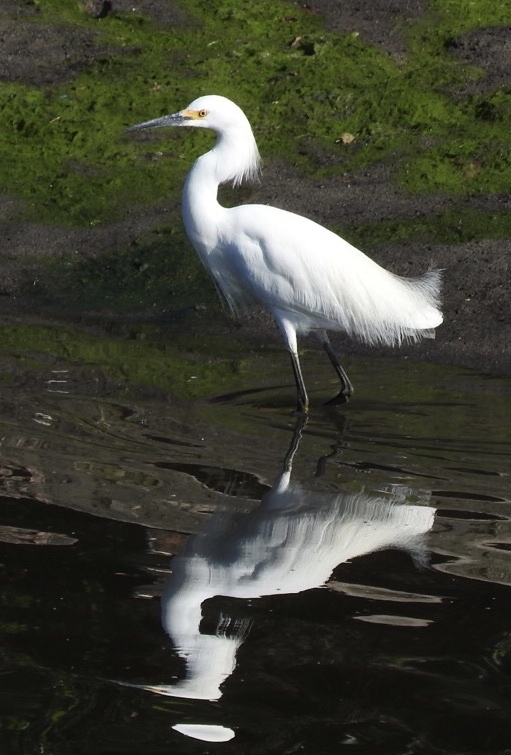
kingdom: Animalia
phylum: Chordata
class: Aves
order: Pelecaniformes
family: Ardeidae
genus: Egretta
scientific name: Egretta thula
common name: Snowy egret
